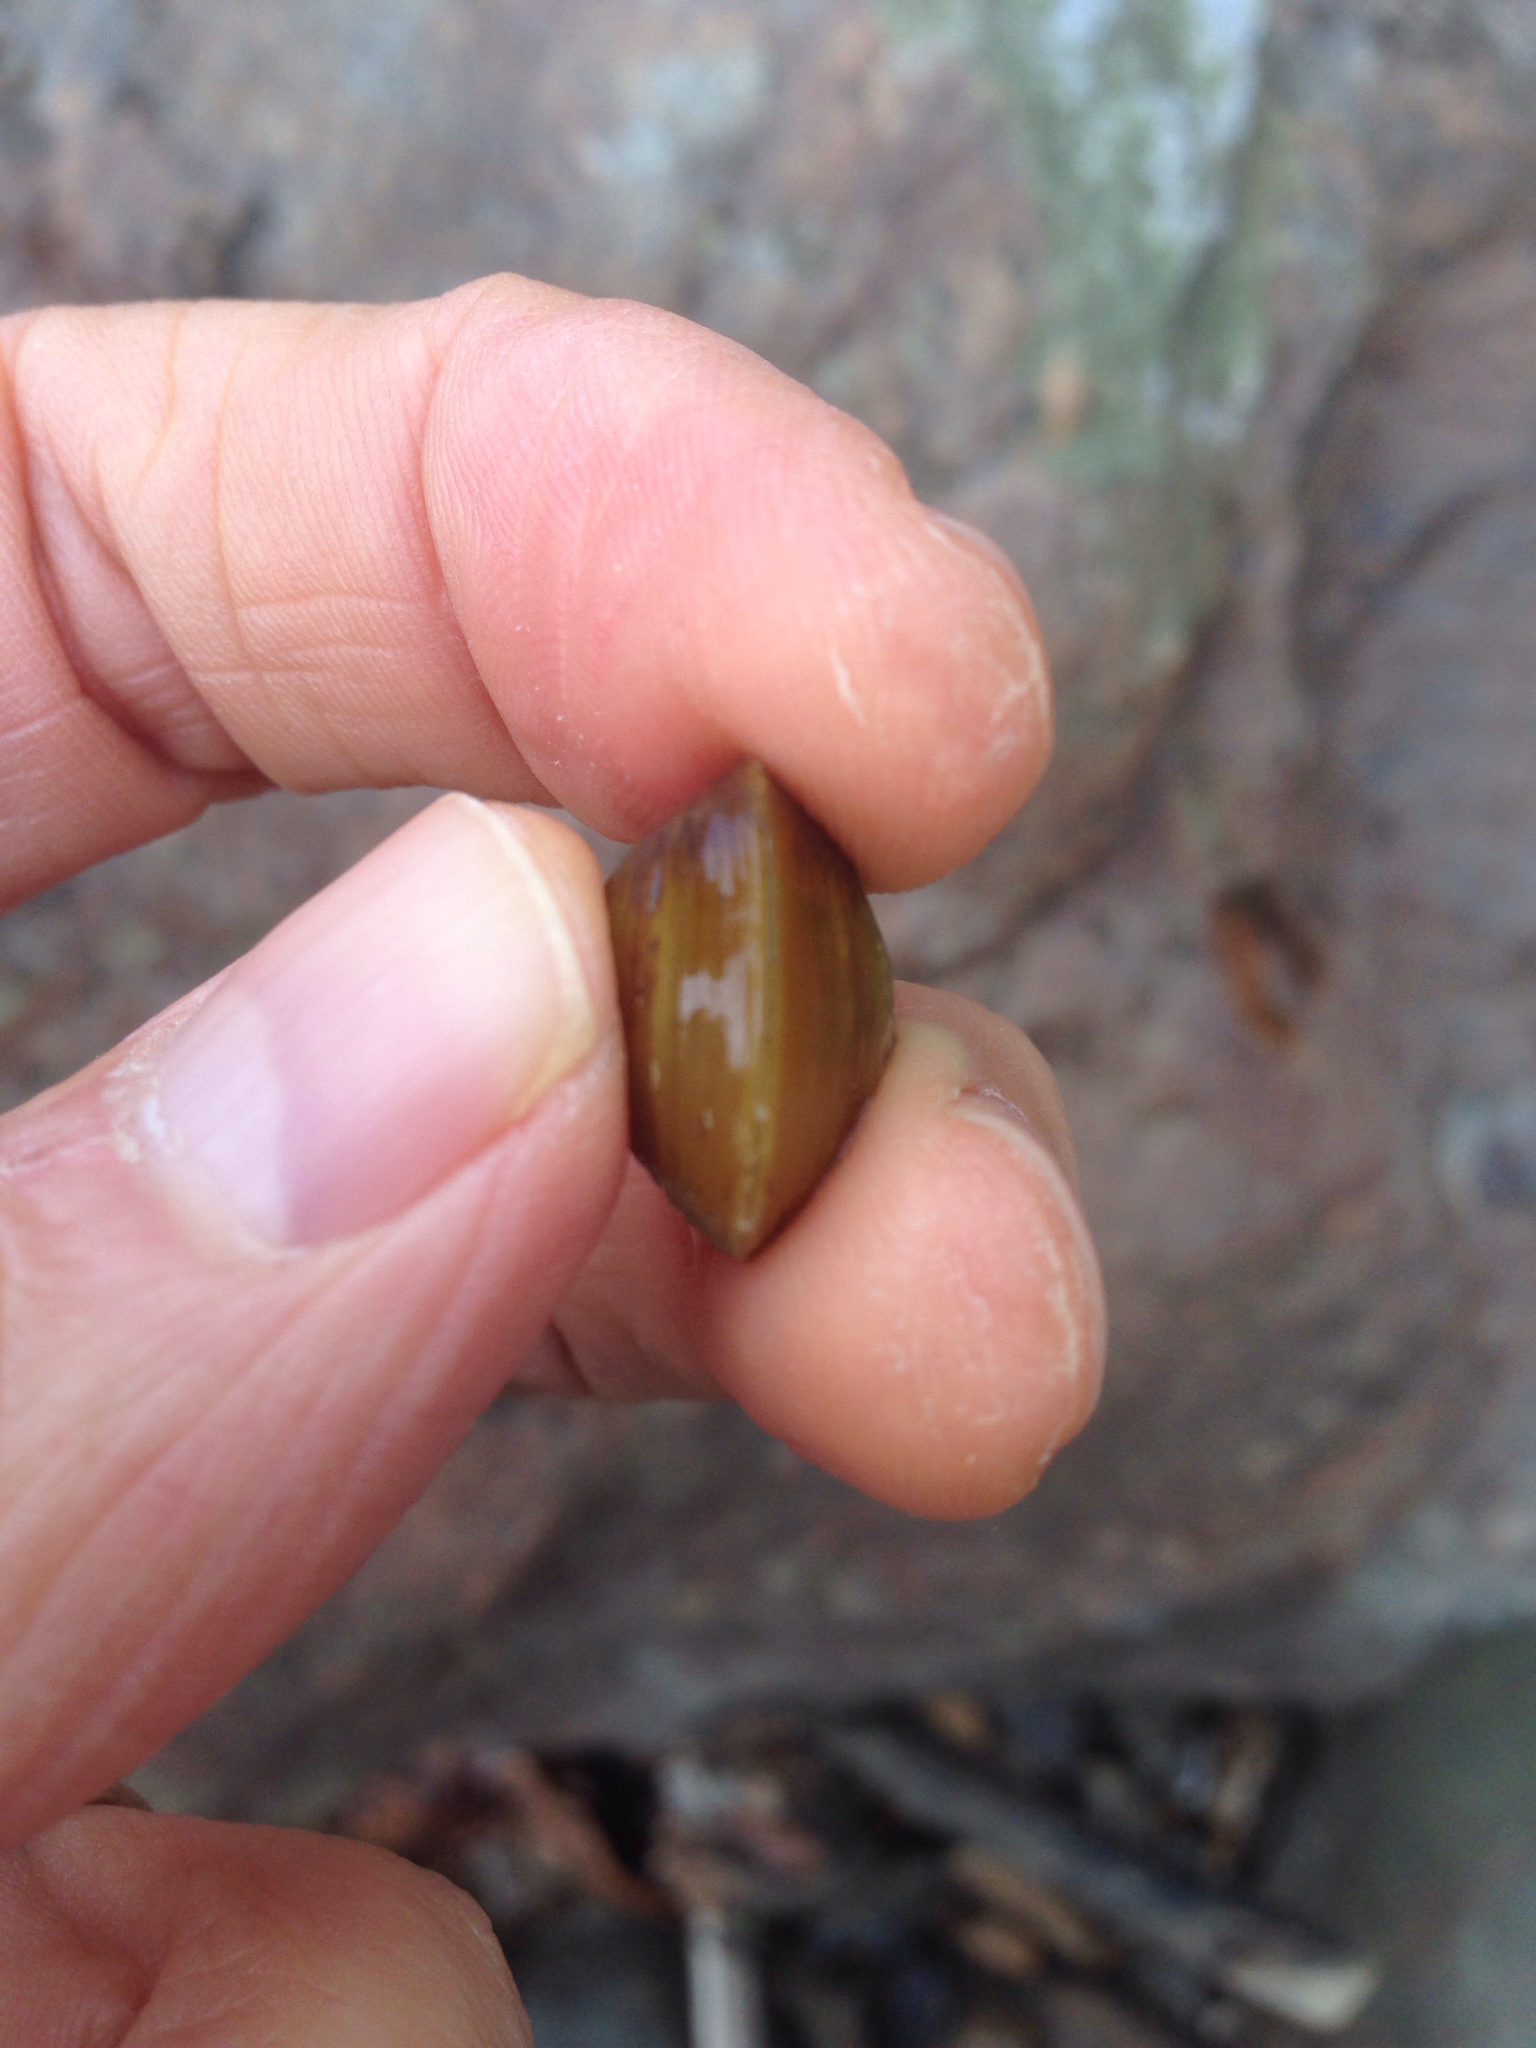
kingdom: Animalia
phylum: Mollusca
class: Bivalvia
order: Venerida
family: Cyrenidae
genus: Corbicula
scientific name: Corbicula fluminea
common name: Asian clam
